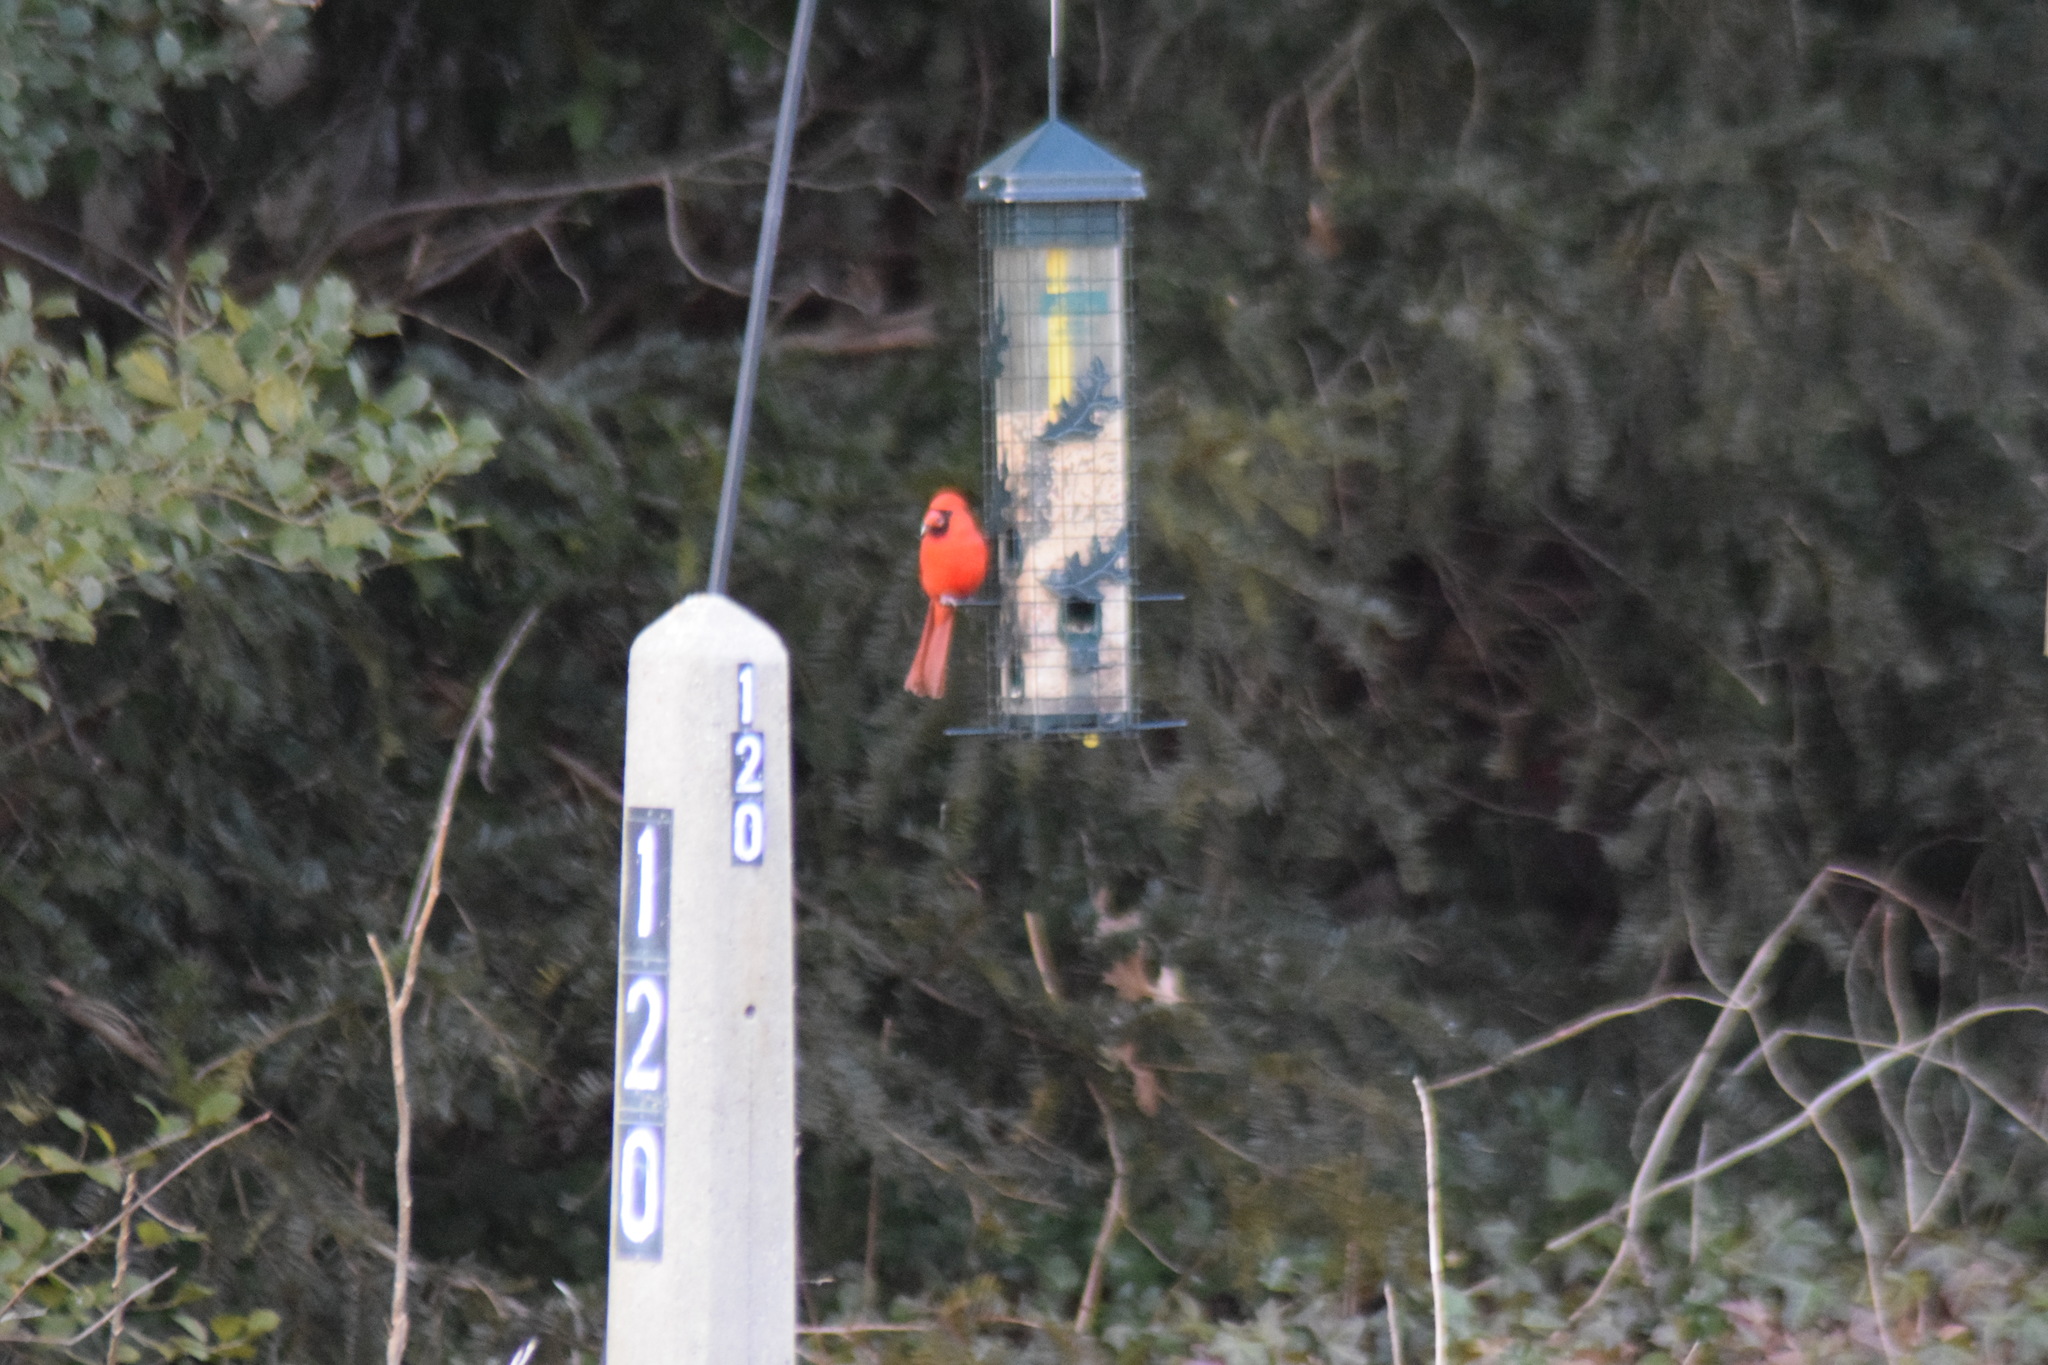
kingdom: Animalia
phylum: Chordata
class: Aves
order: Passeriformes
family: Cardinalidae
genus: Cardinalis
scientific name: Cardinalis cardinalis
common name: Northern cardinal
